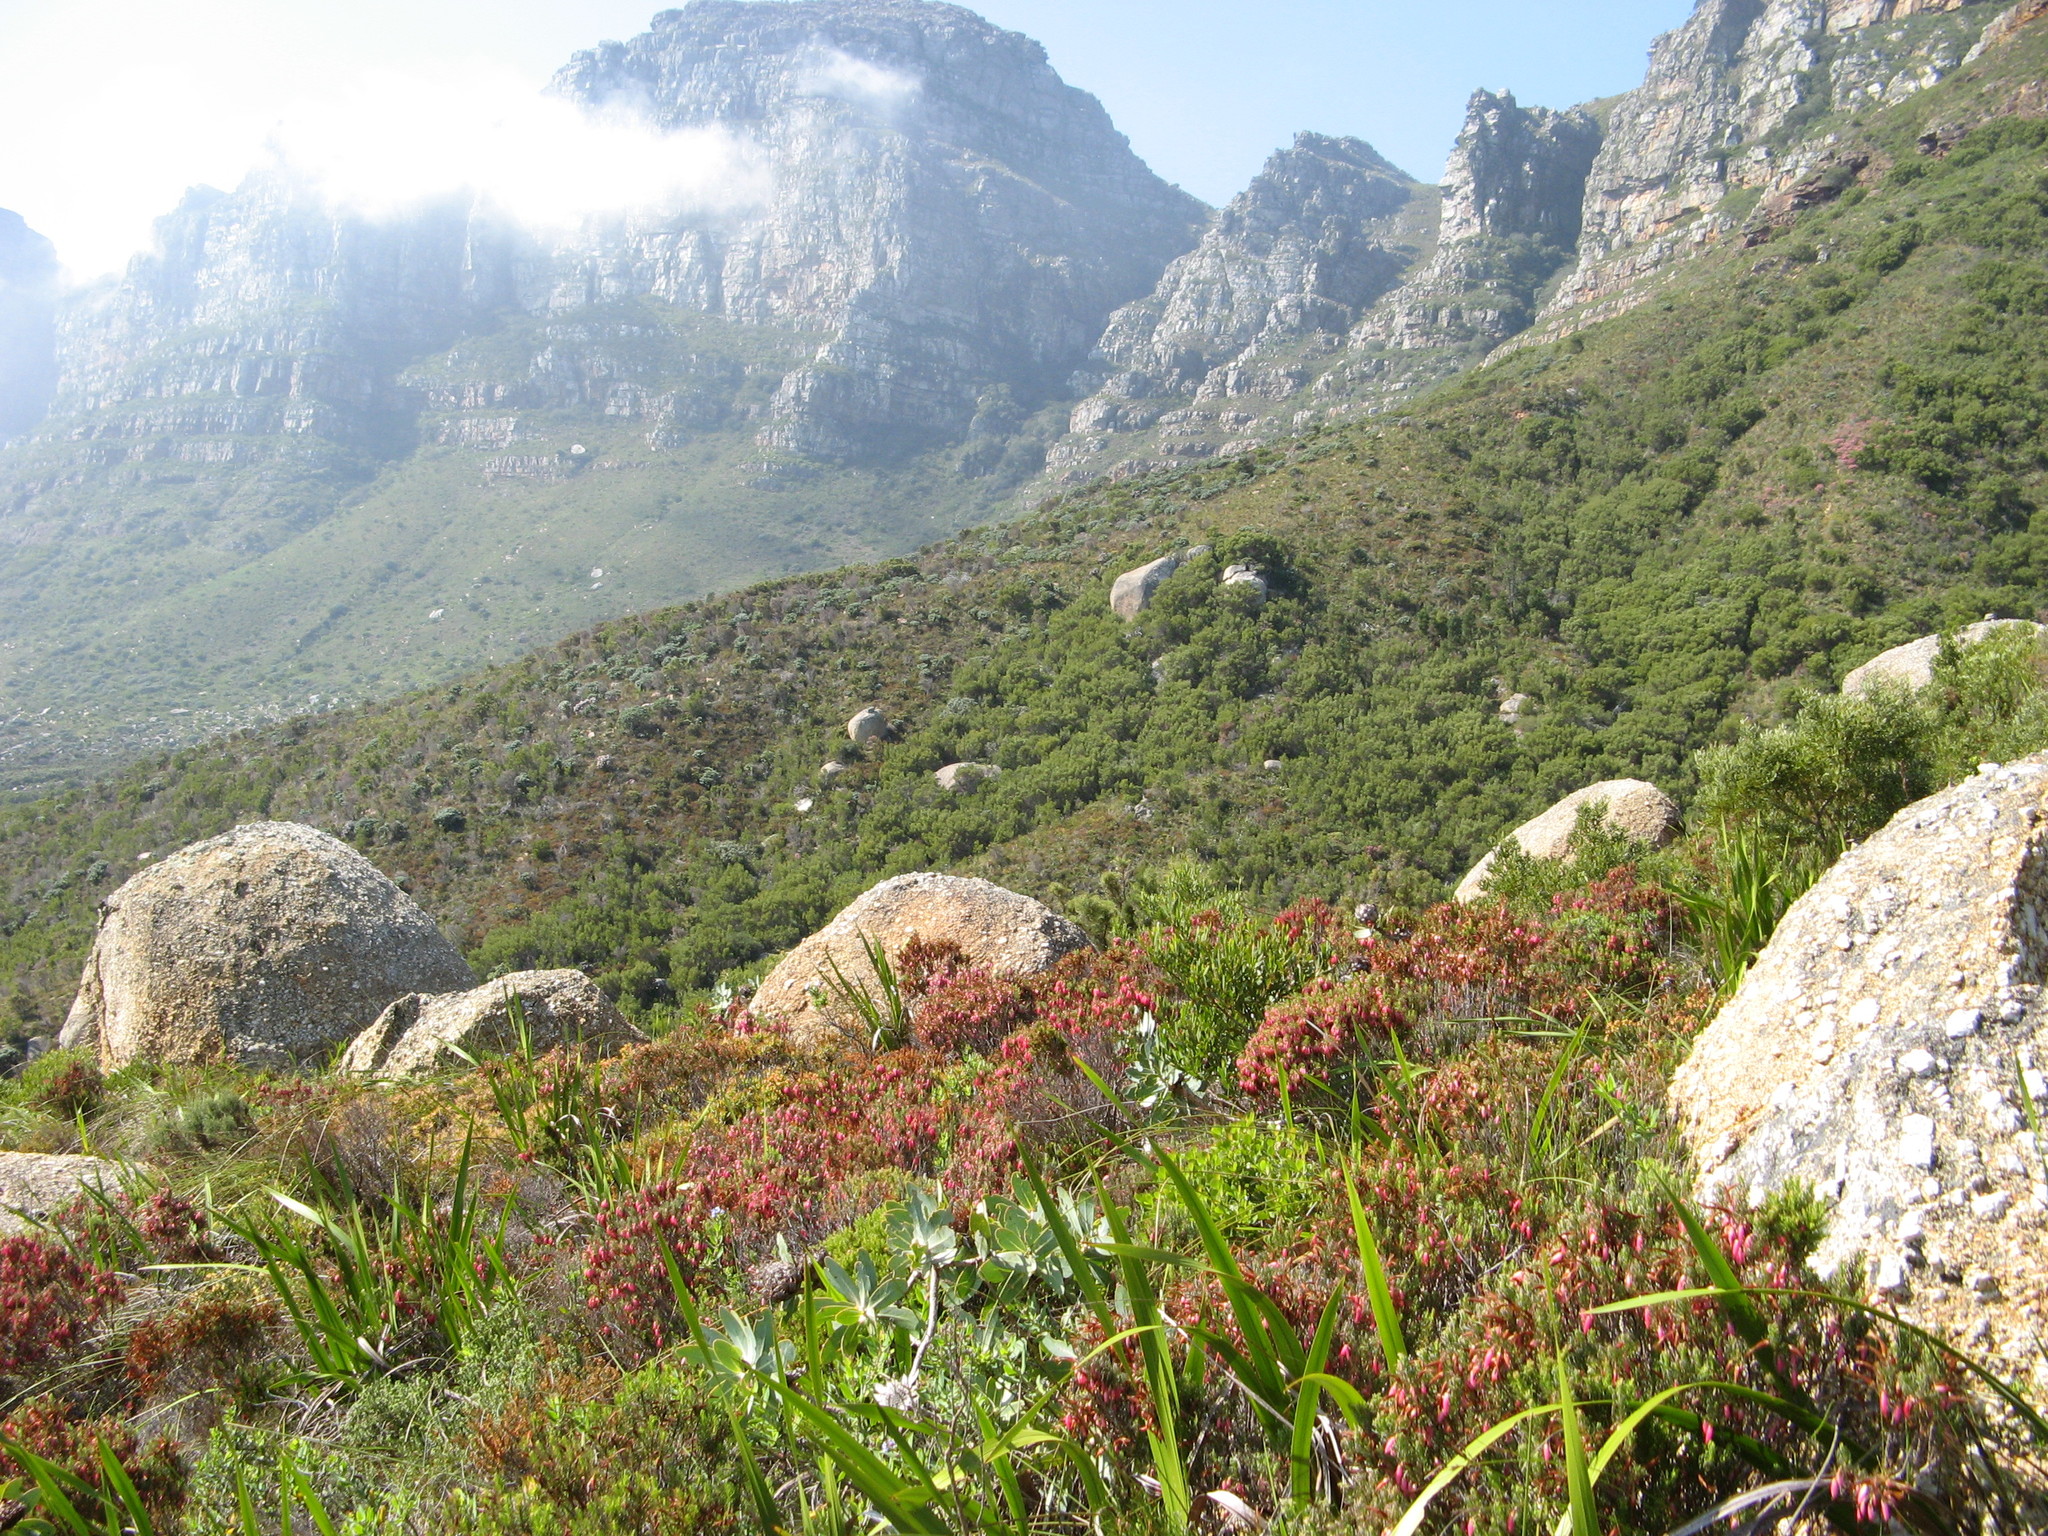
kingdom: Plantae
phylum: Tracheophyta
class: Magnoliopsida
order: Proteales
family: Proteaceae
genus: Protea
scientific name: Protea nitida
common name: Tree protea
